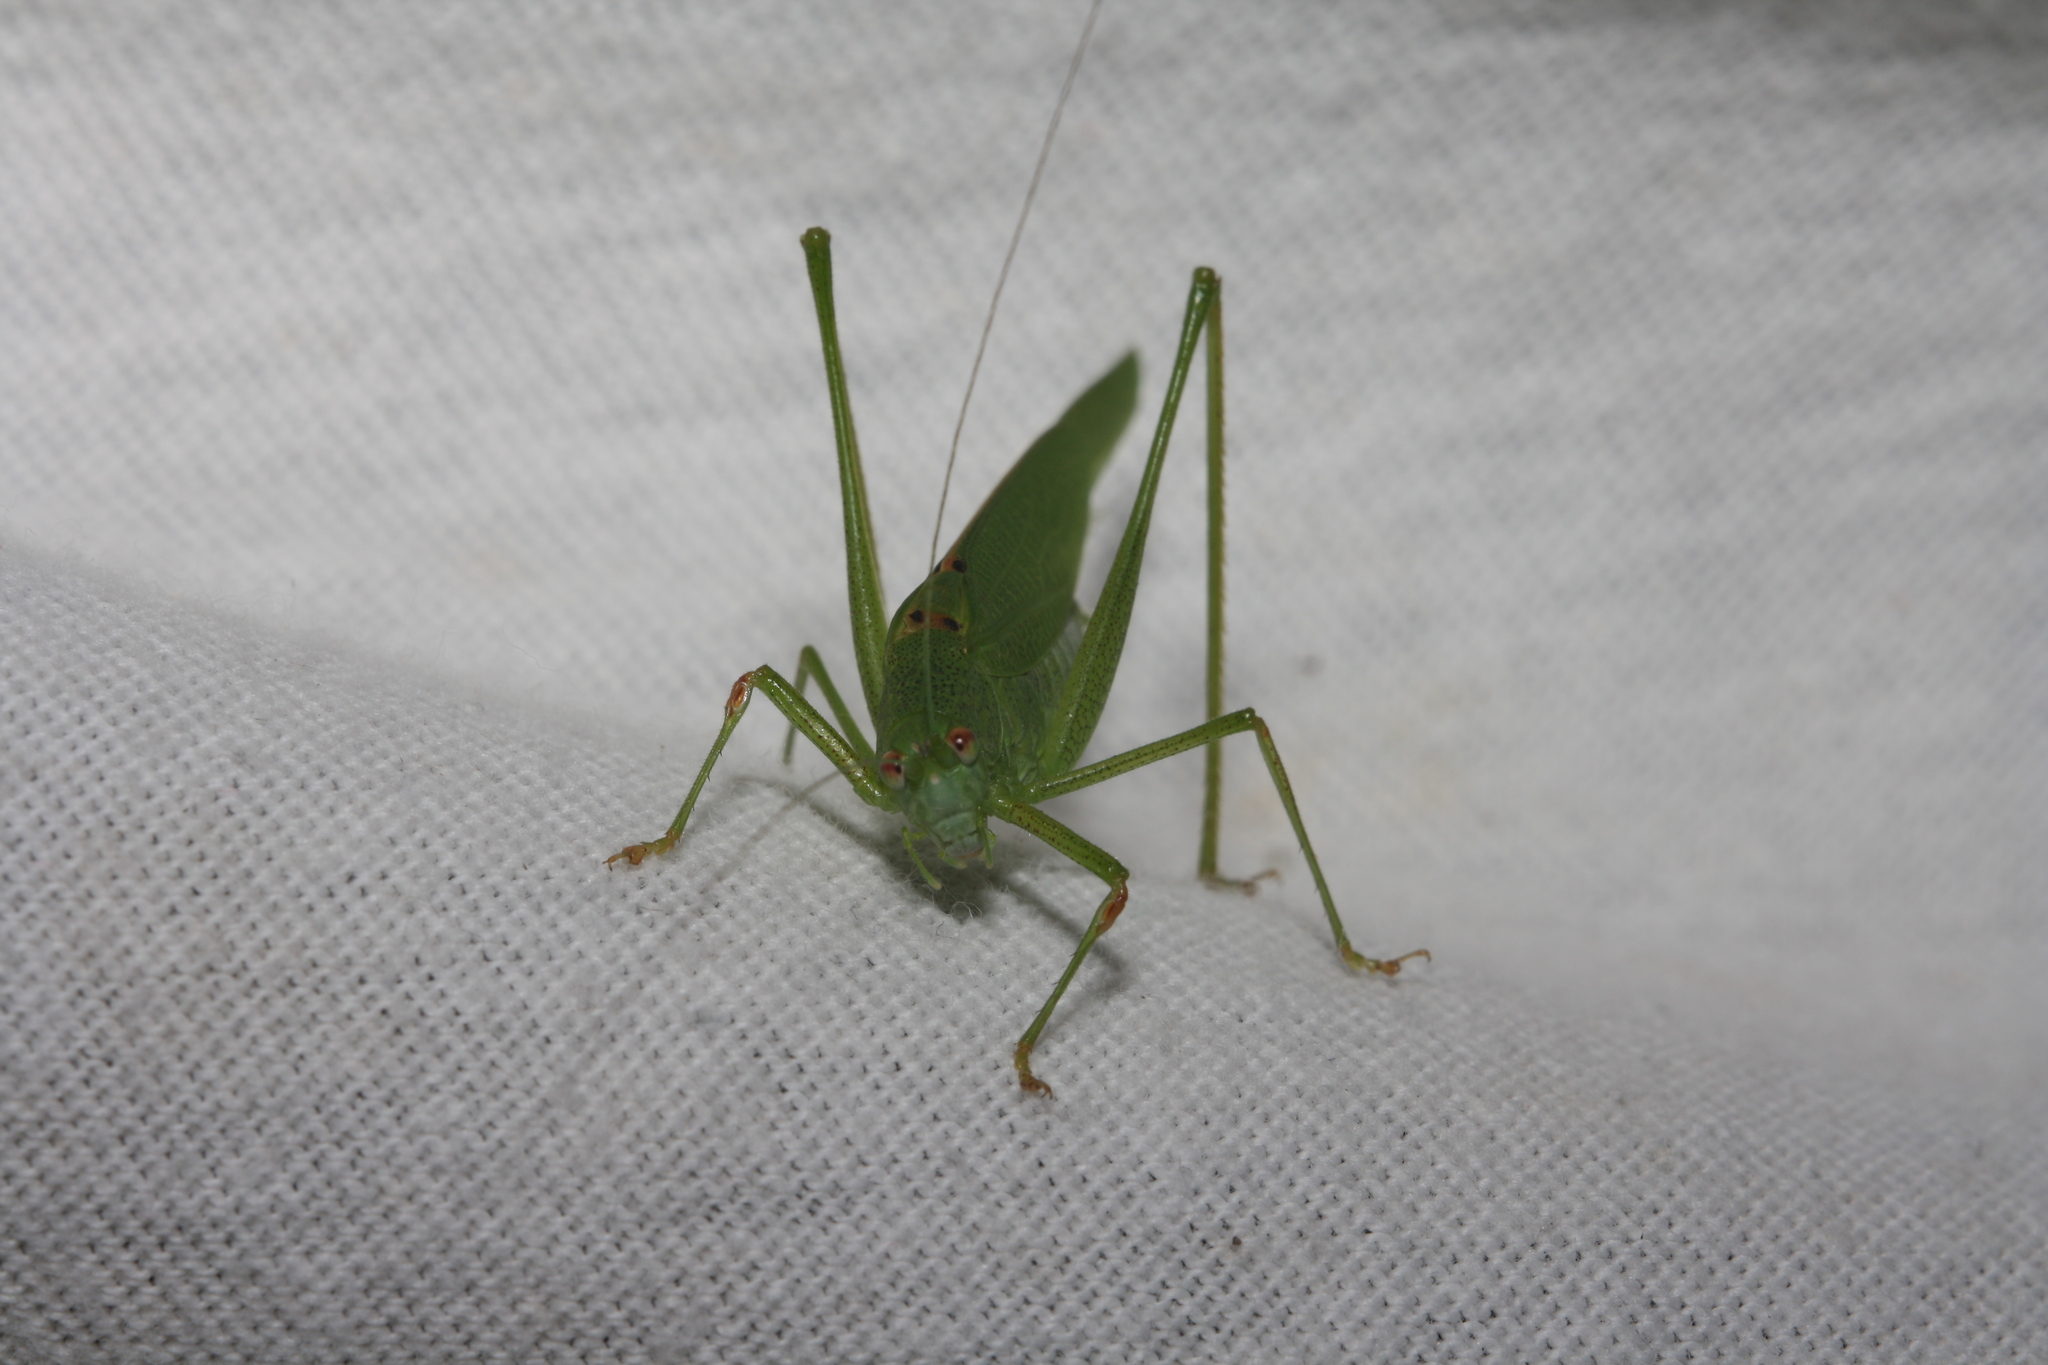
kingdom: Animalia
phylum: Arthropoda
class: Insecta
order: Orthoptera
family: Tettigoniidae
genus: Phaneroptera
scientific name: Phaneroptera nana
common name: Southern sickle bush-cricket
